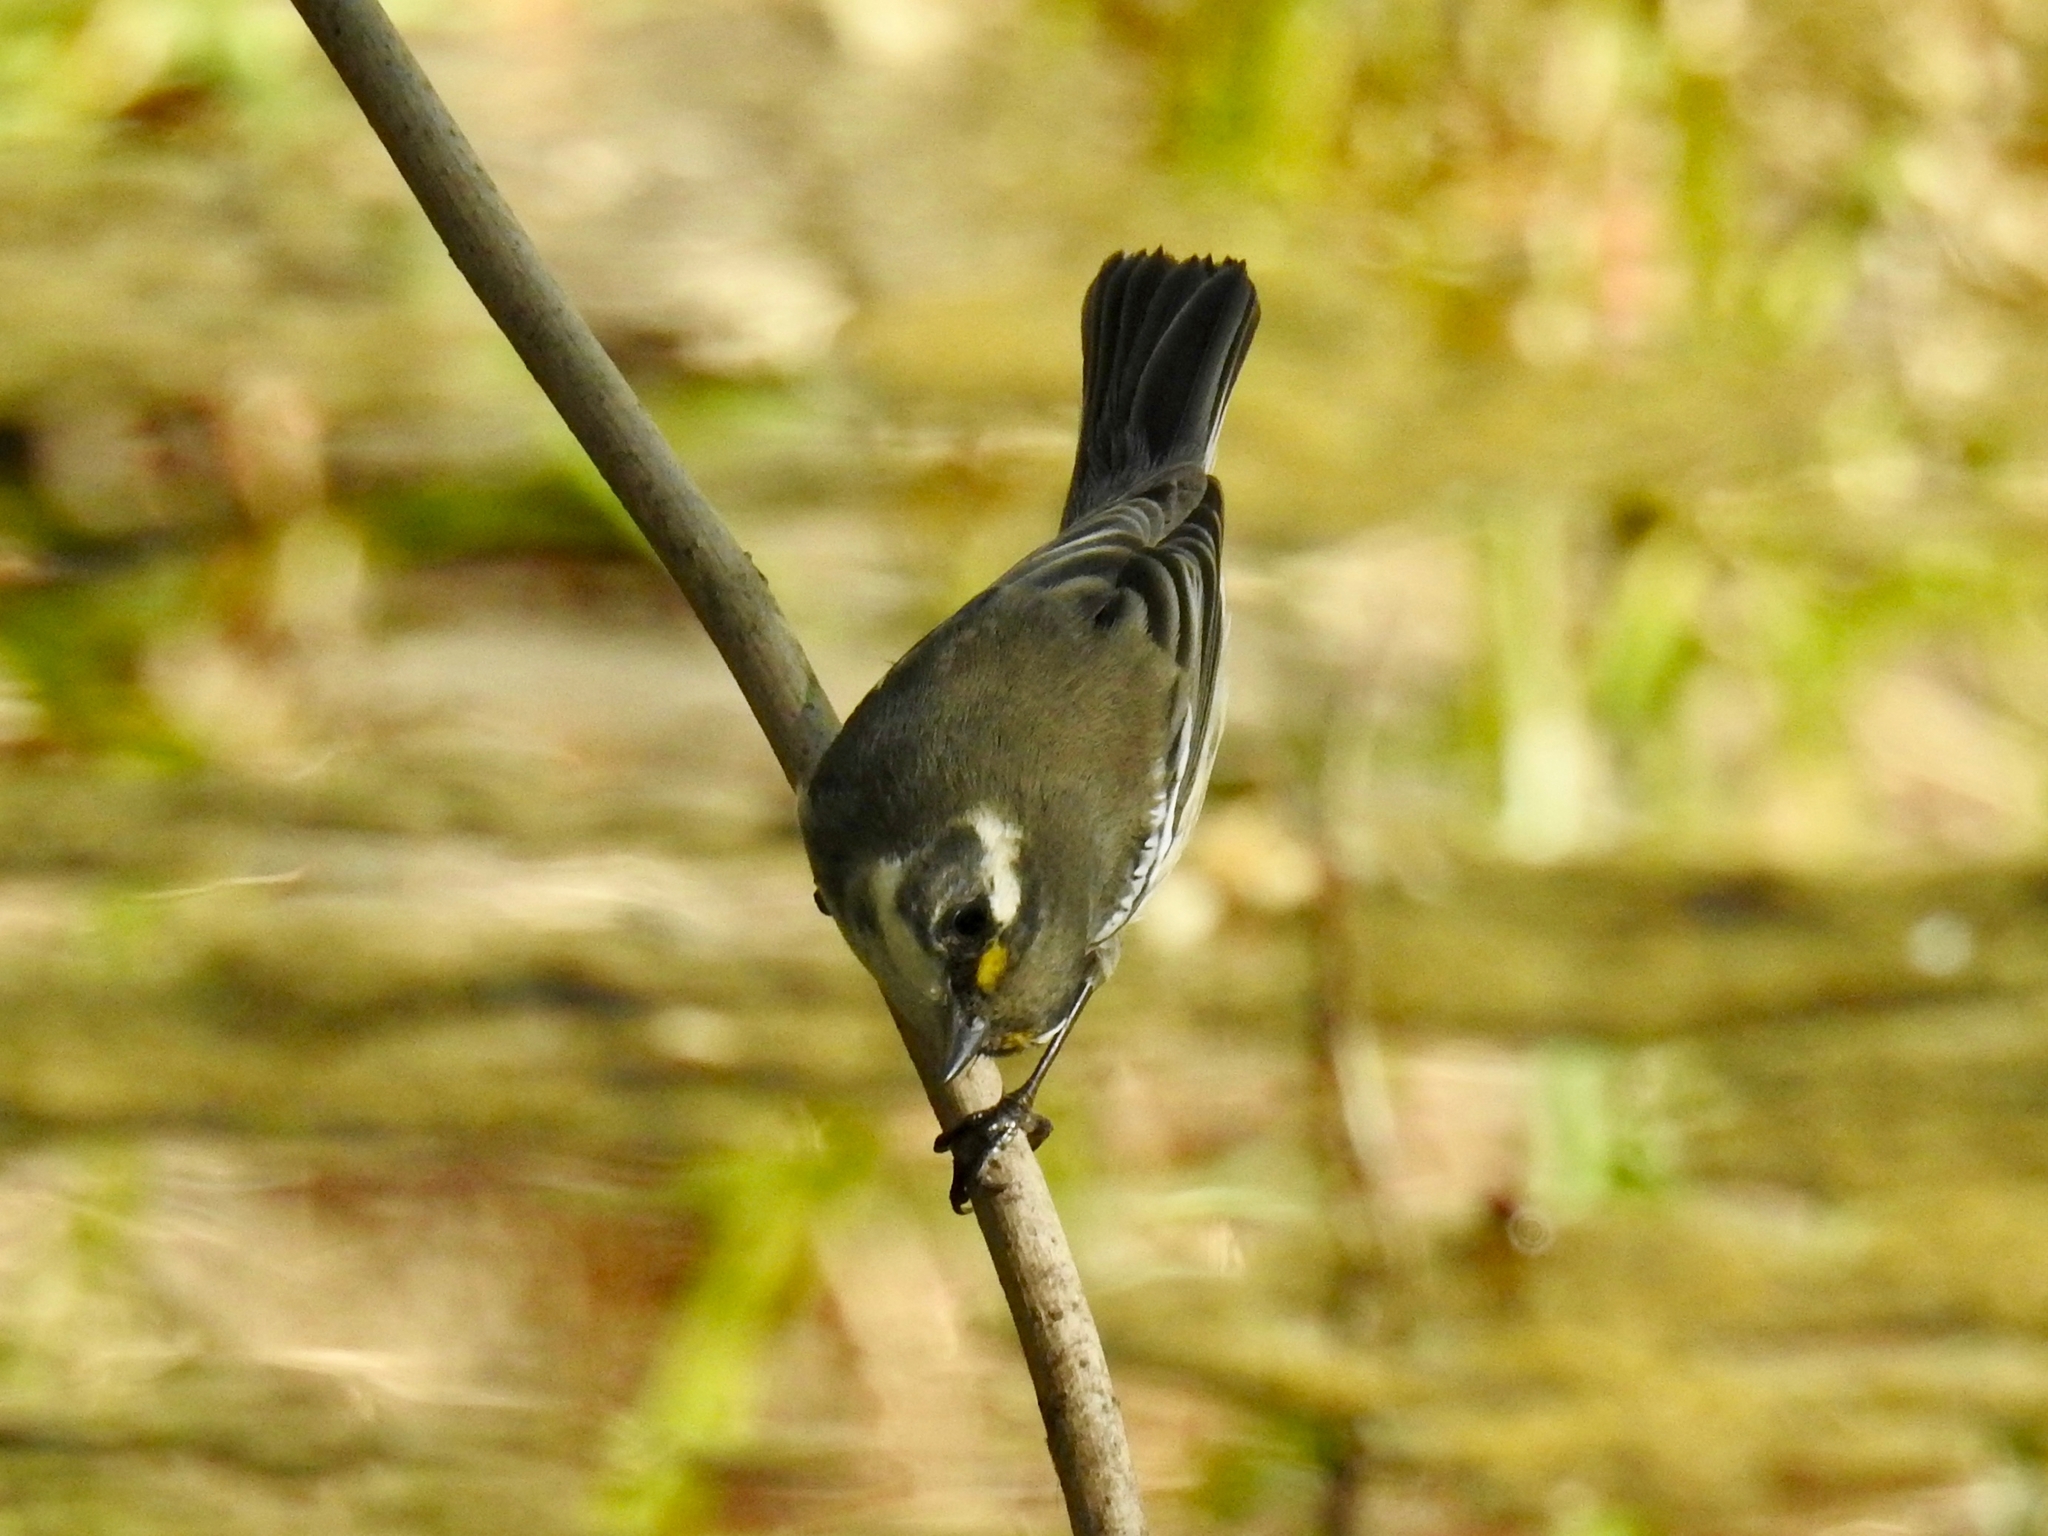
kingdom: Animalia
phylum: Chordata
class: Aves
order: Passeriformes
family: Parulidae
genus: Setophaga
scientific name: Setophaga nigrescens
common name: Black-throated gray warbler
